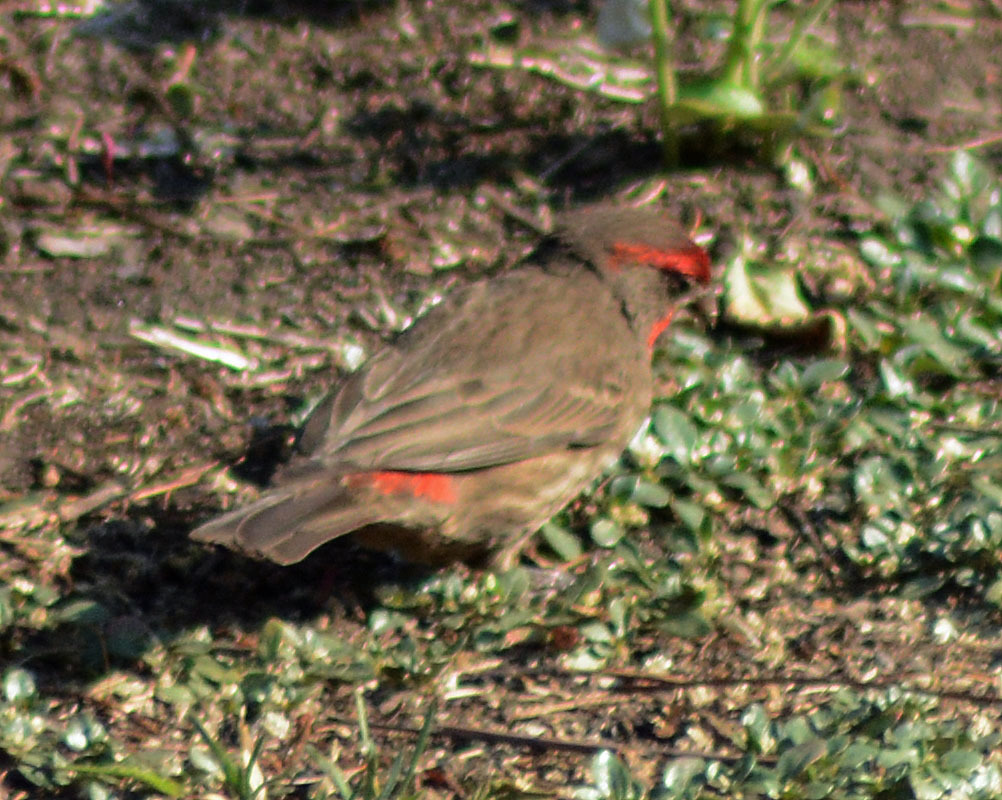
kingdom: Animalia
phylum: Chordata
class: Aves
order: Passeriformes
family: Fringillidae
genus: Haemorhous
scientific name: Haemorhous mexicanus
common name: House finch
